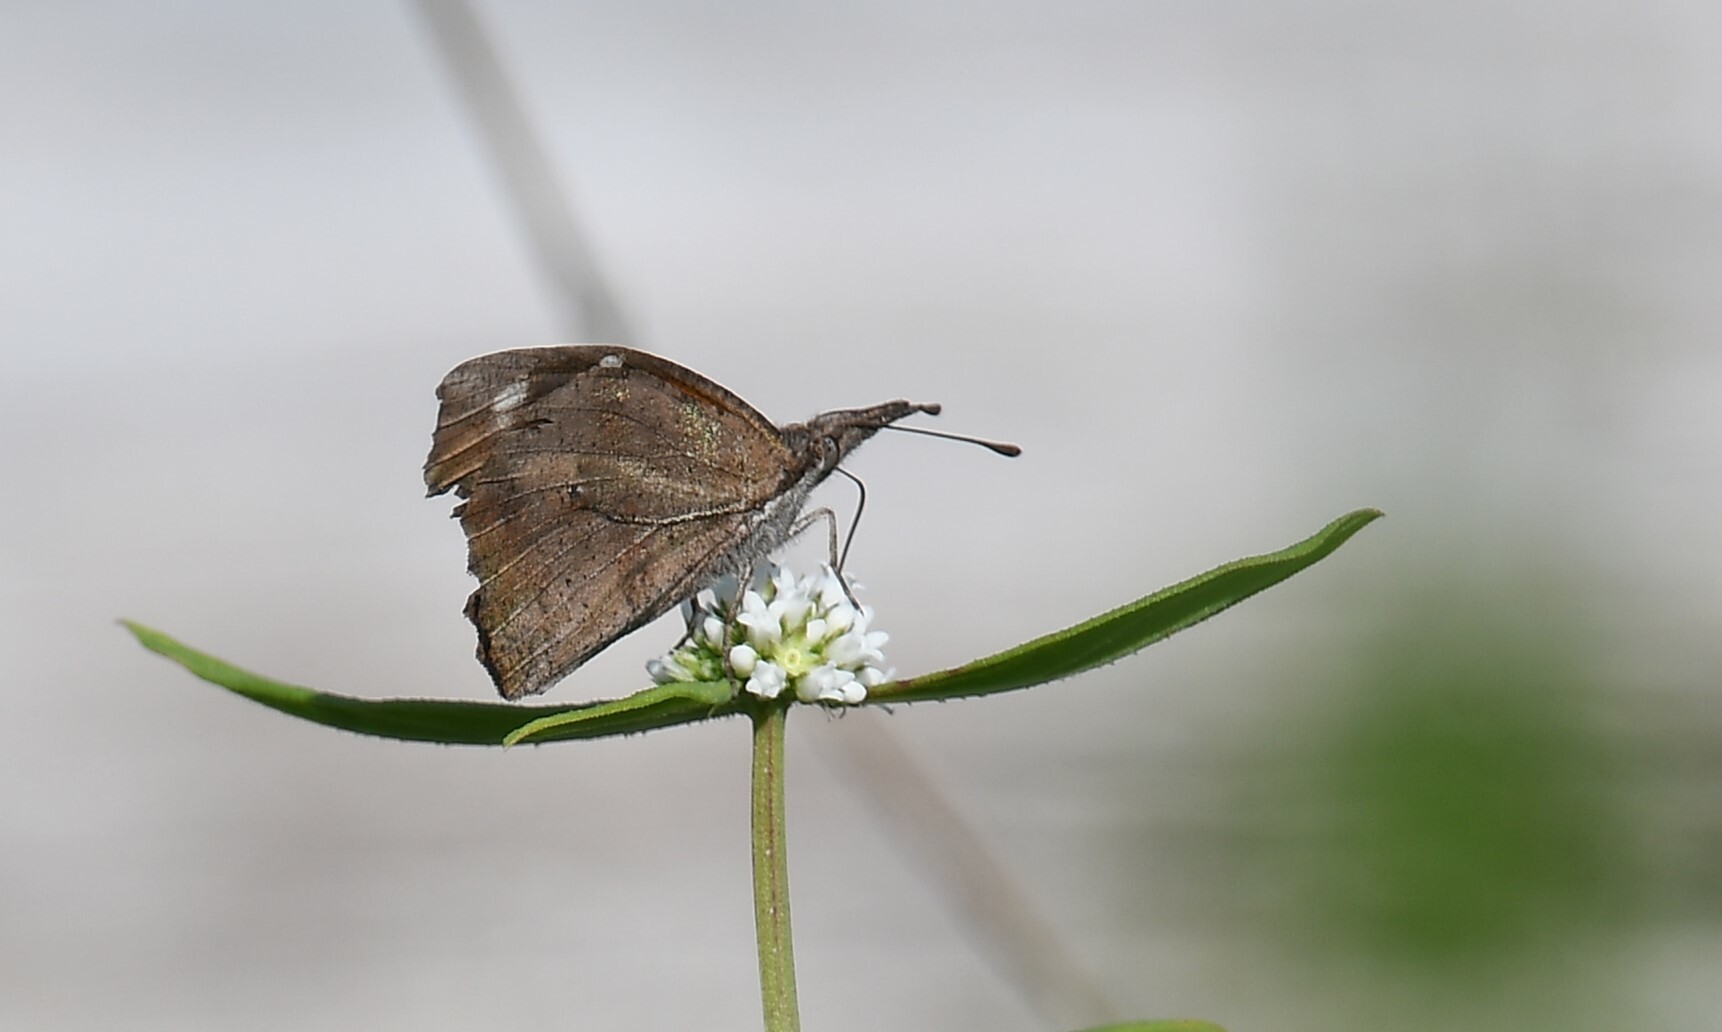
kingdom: Animalia
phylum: Arthropoda
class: Insecta
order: Lepidoptera
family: Nymphalidae
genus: Libytheana
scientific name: Libytheana carinenta
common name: American snout
